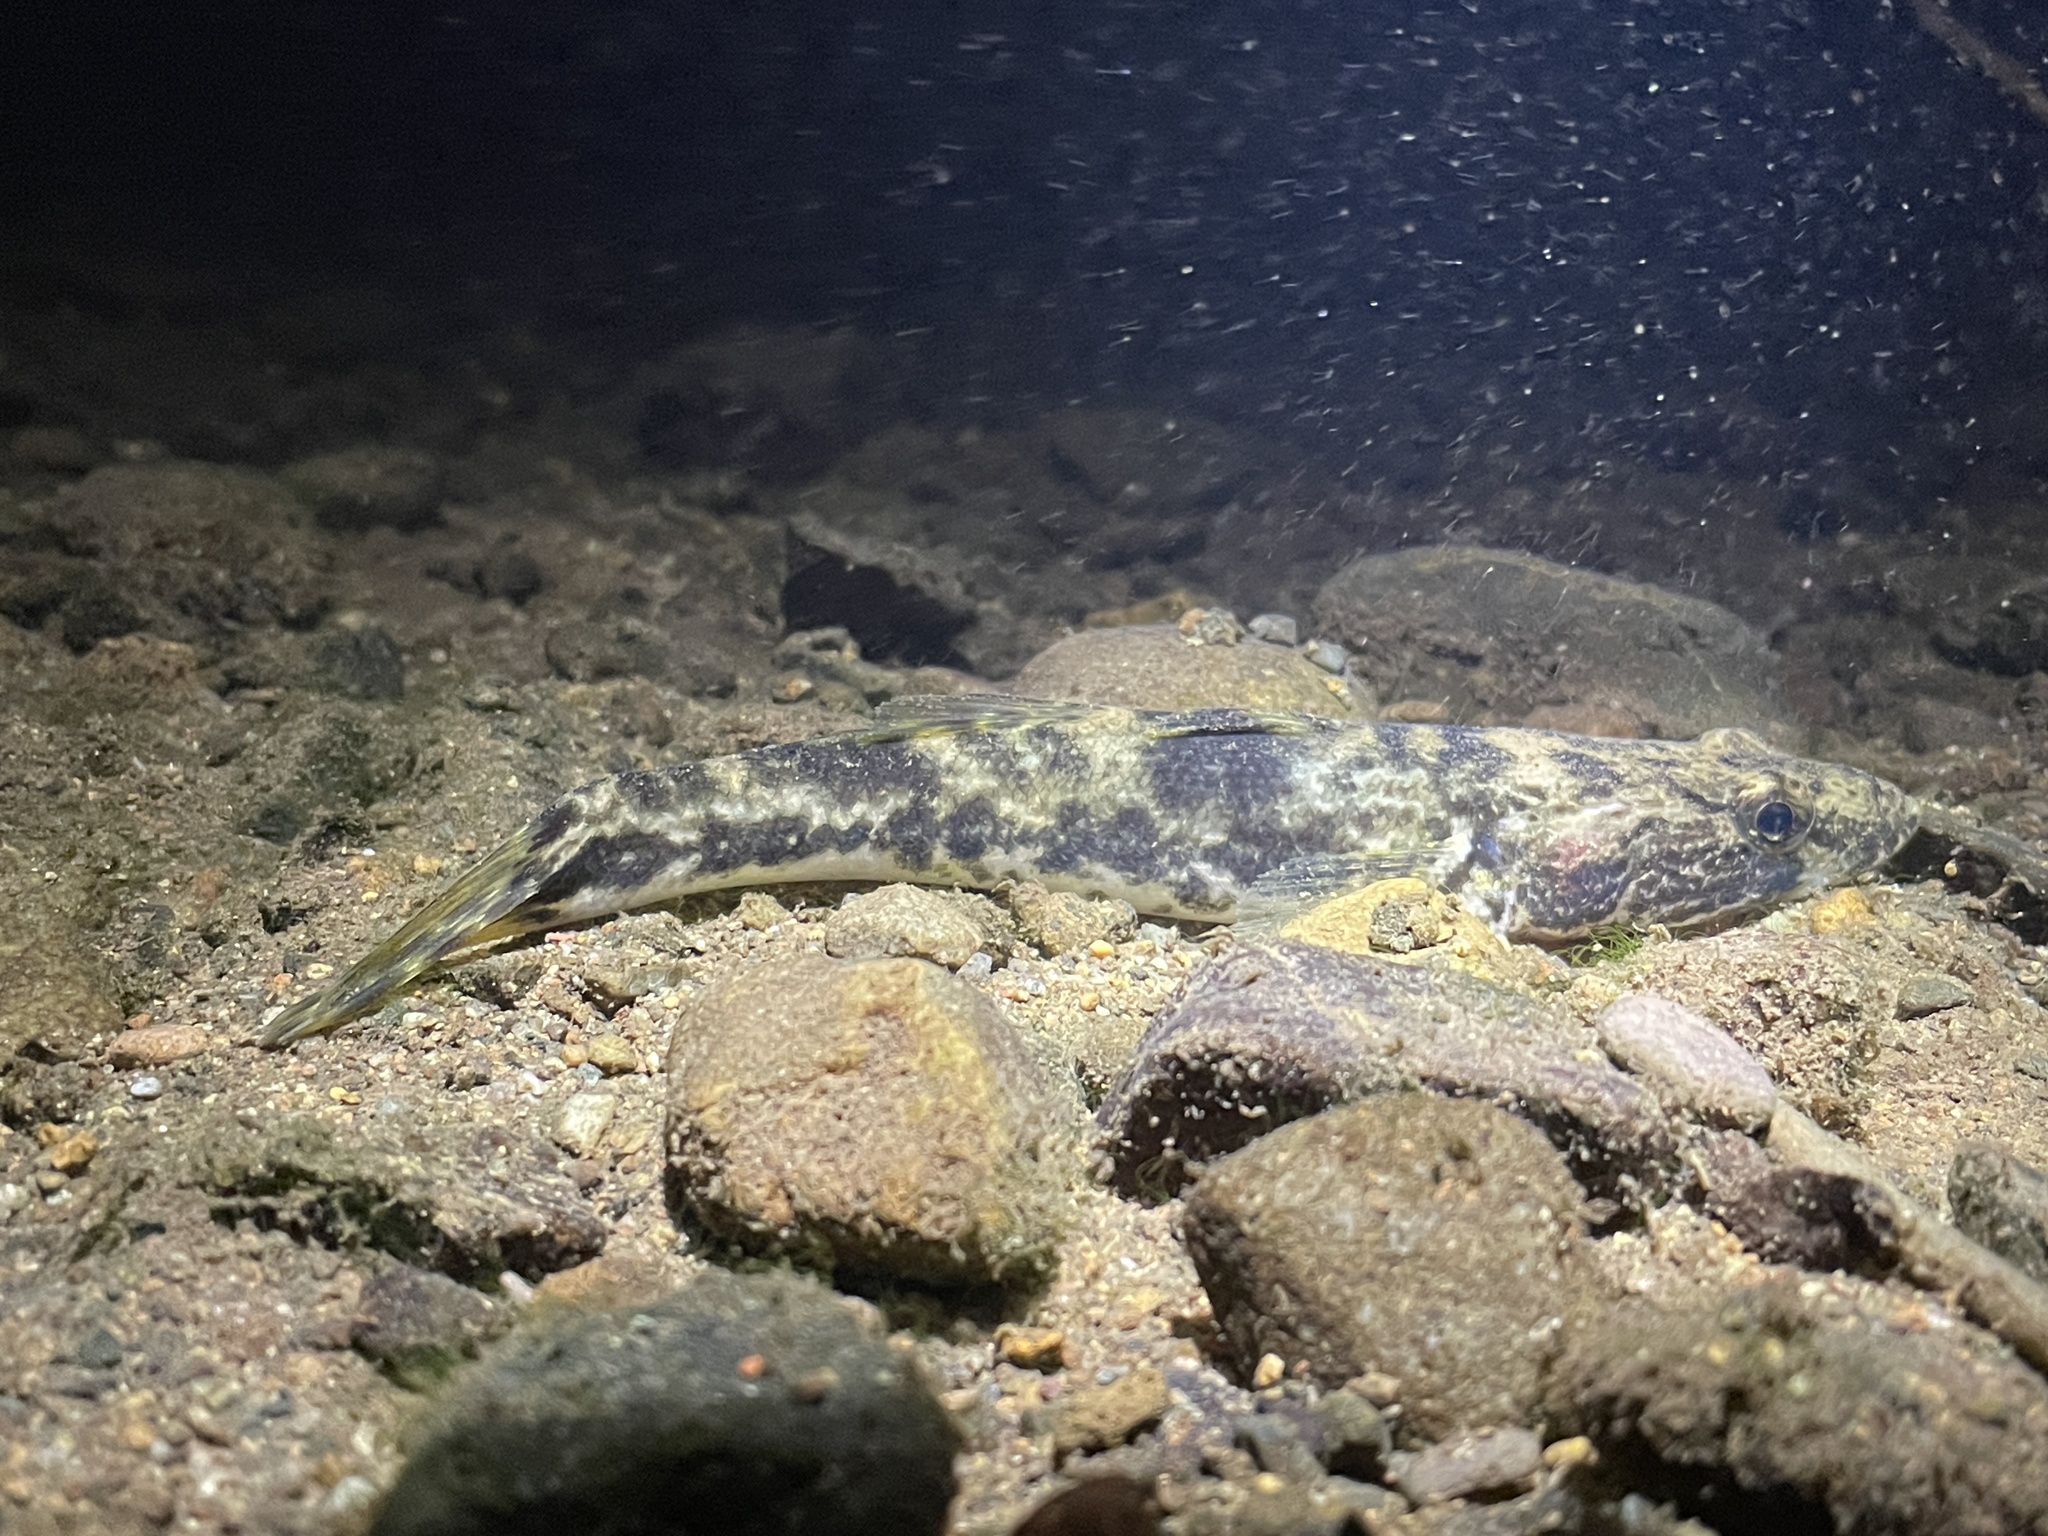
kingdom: Animalia
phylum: Chordata
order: Perciformes
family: Eleotridae
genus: Gobiomorus
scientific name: Gobiomorus dormitor
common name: Bigmouth sleeper
